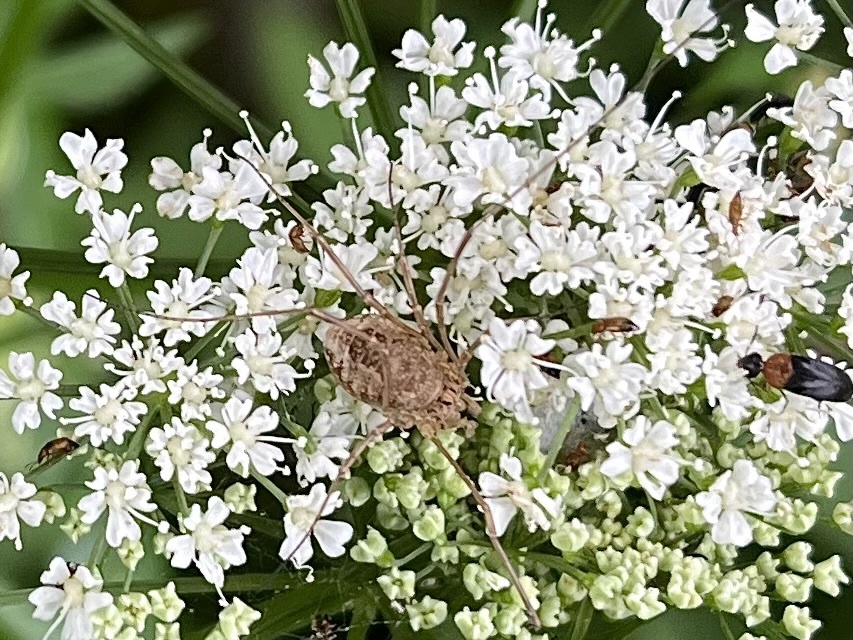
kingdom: Animalia
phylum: Arthropoda
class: Arachnida
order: Opiliones
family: Phalangiidae
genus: Rilaena
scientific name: Rilaena triangularis
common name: Spring harvestman
